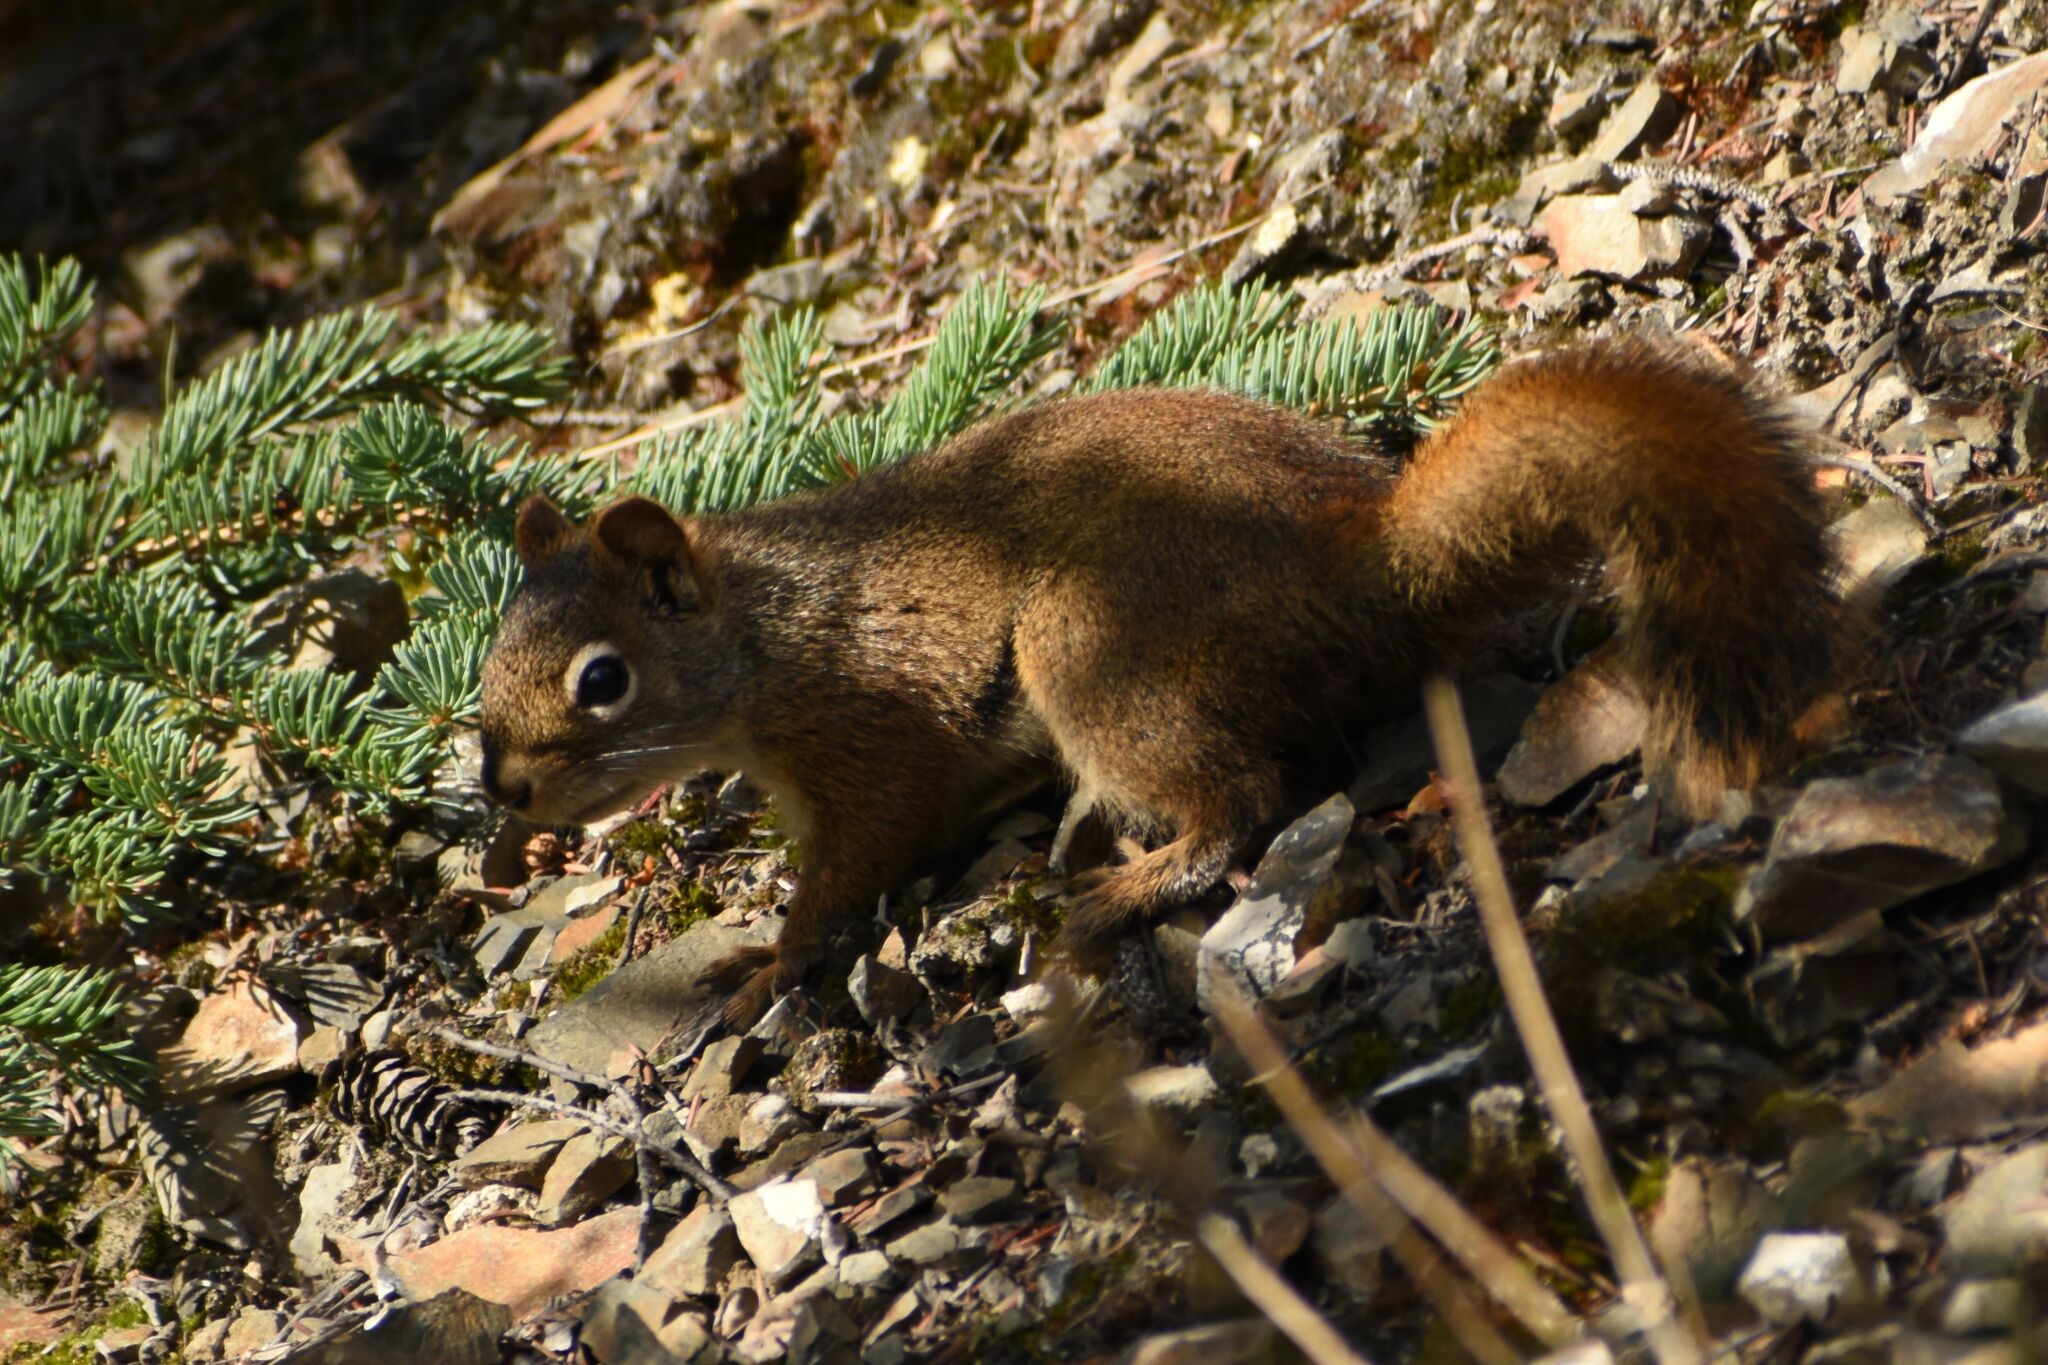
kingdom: Animalia
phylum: Chordata
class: Mammalia
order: Rodentia
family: Sciuridae
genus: Tamiasciurus
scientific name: Tamiasciurus hudsonicus
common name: Red squirrel
